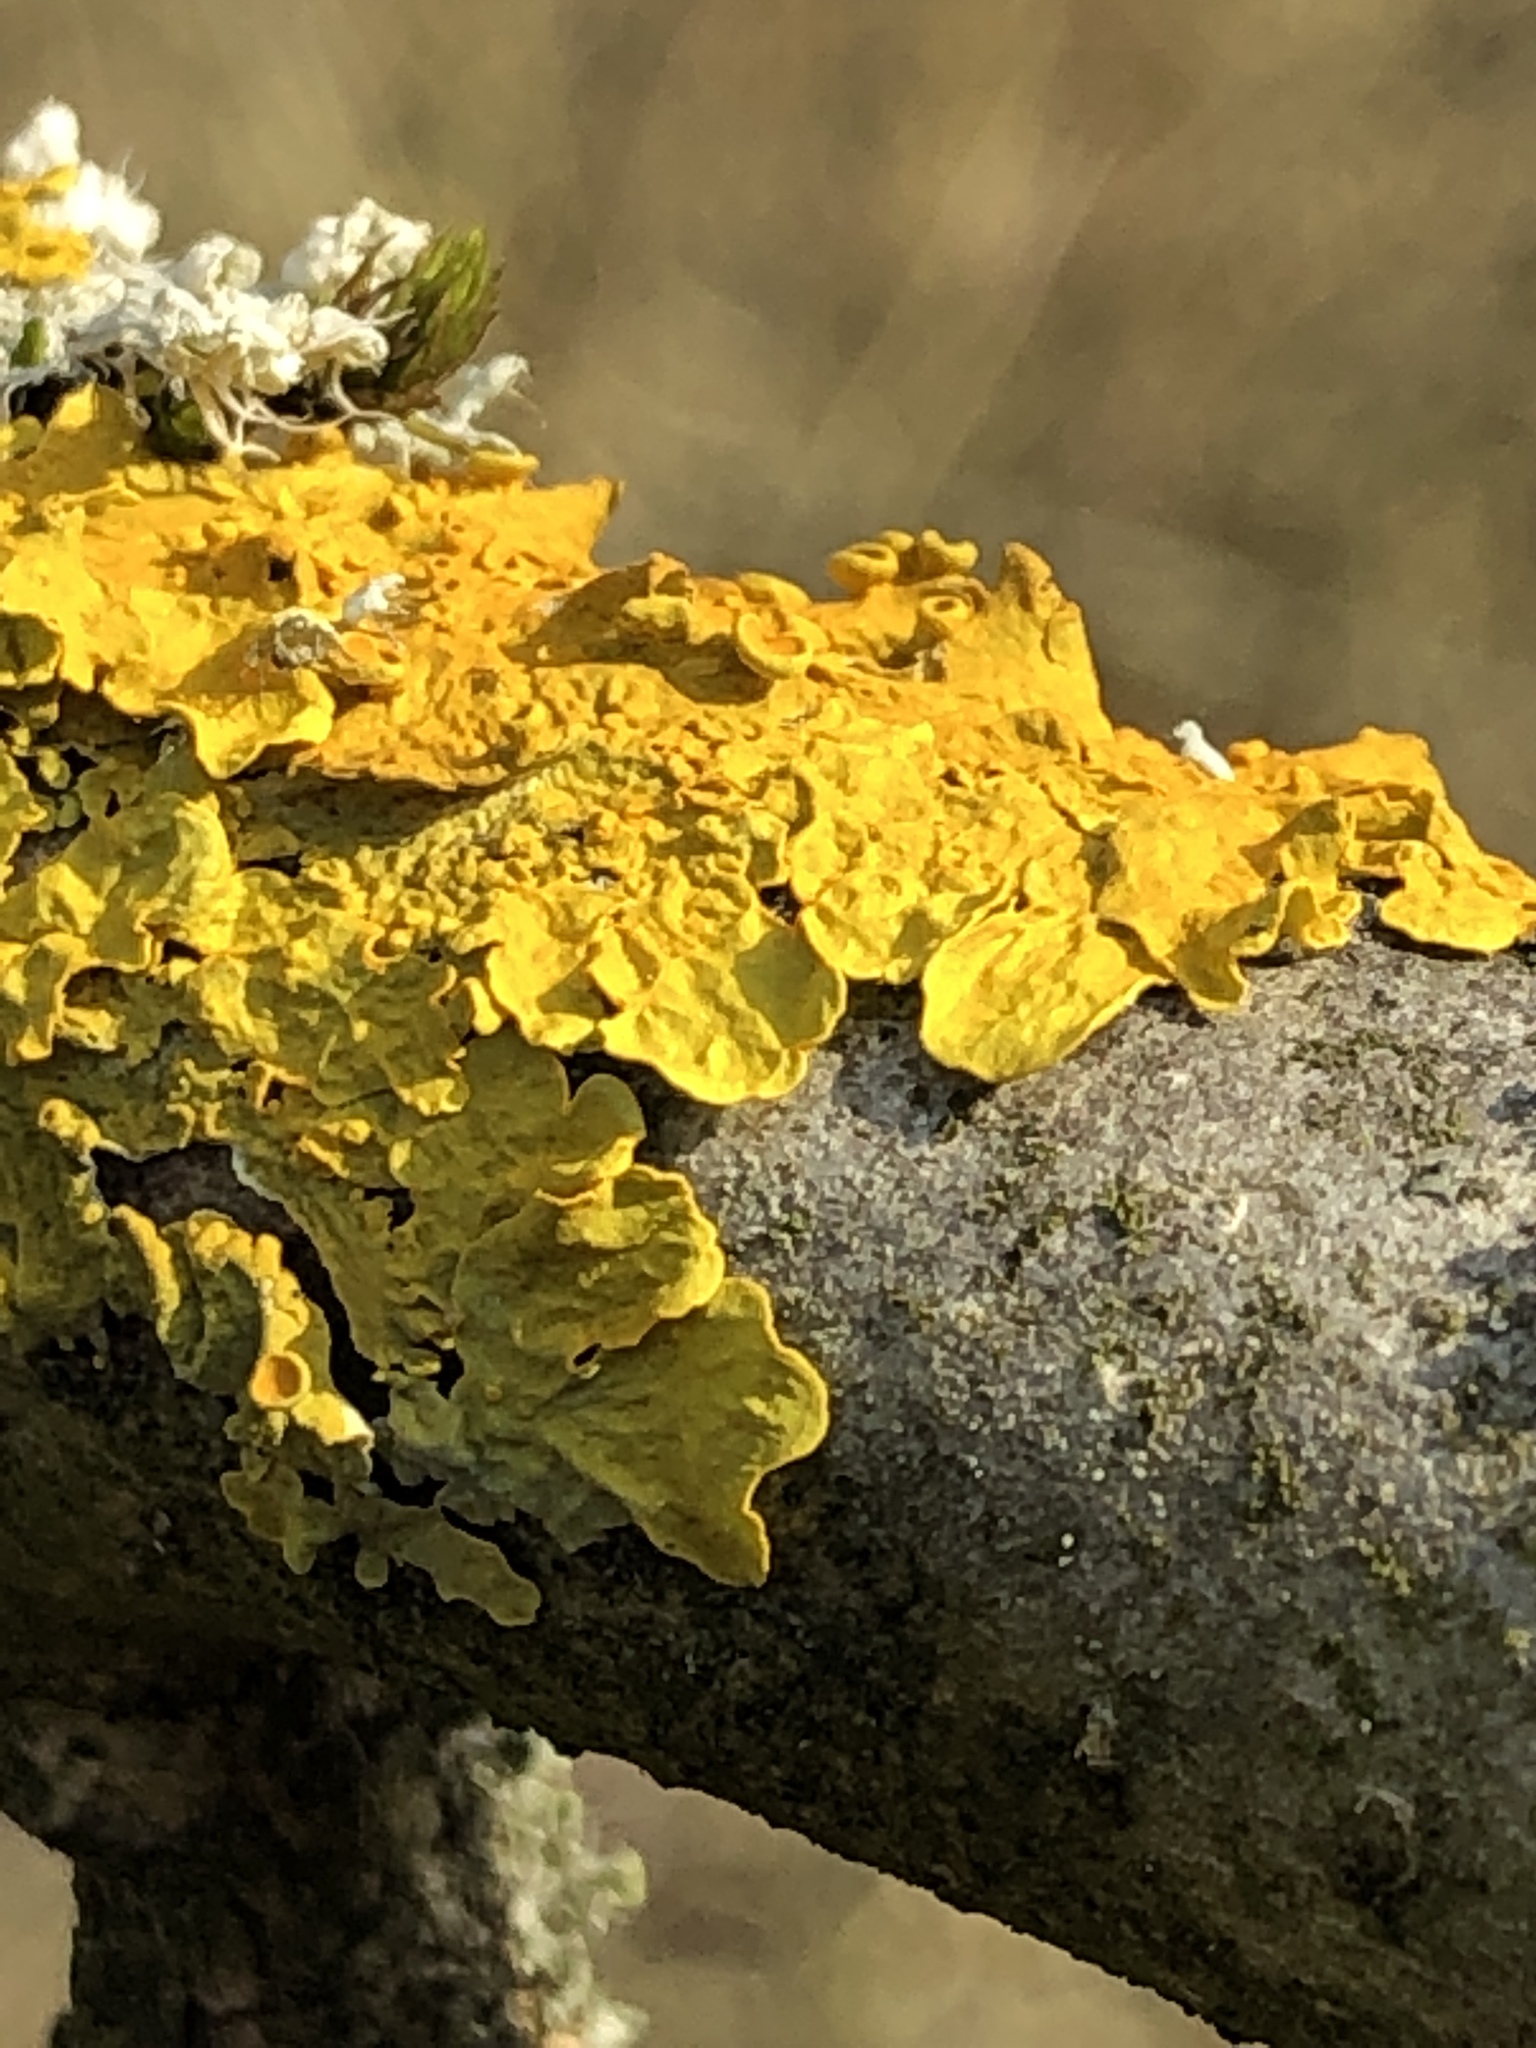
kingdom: Fungi
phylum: Ascomycota
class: Lecanoromycetes
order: Teloschistales
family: Teloschistaceae
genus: Xanthoria
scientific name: Xanthoria parietina
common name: Common orange lichen
